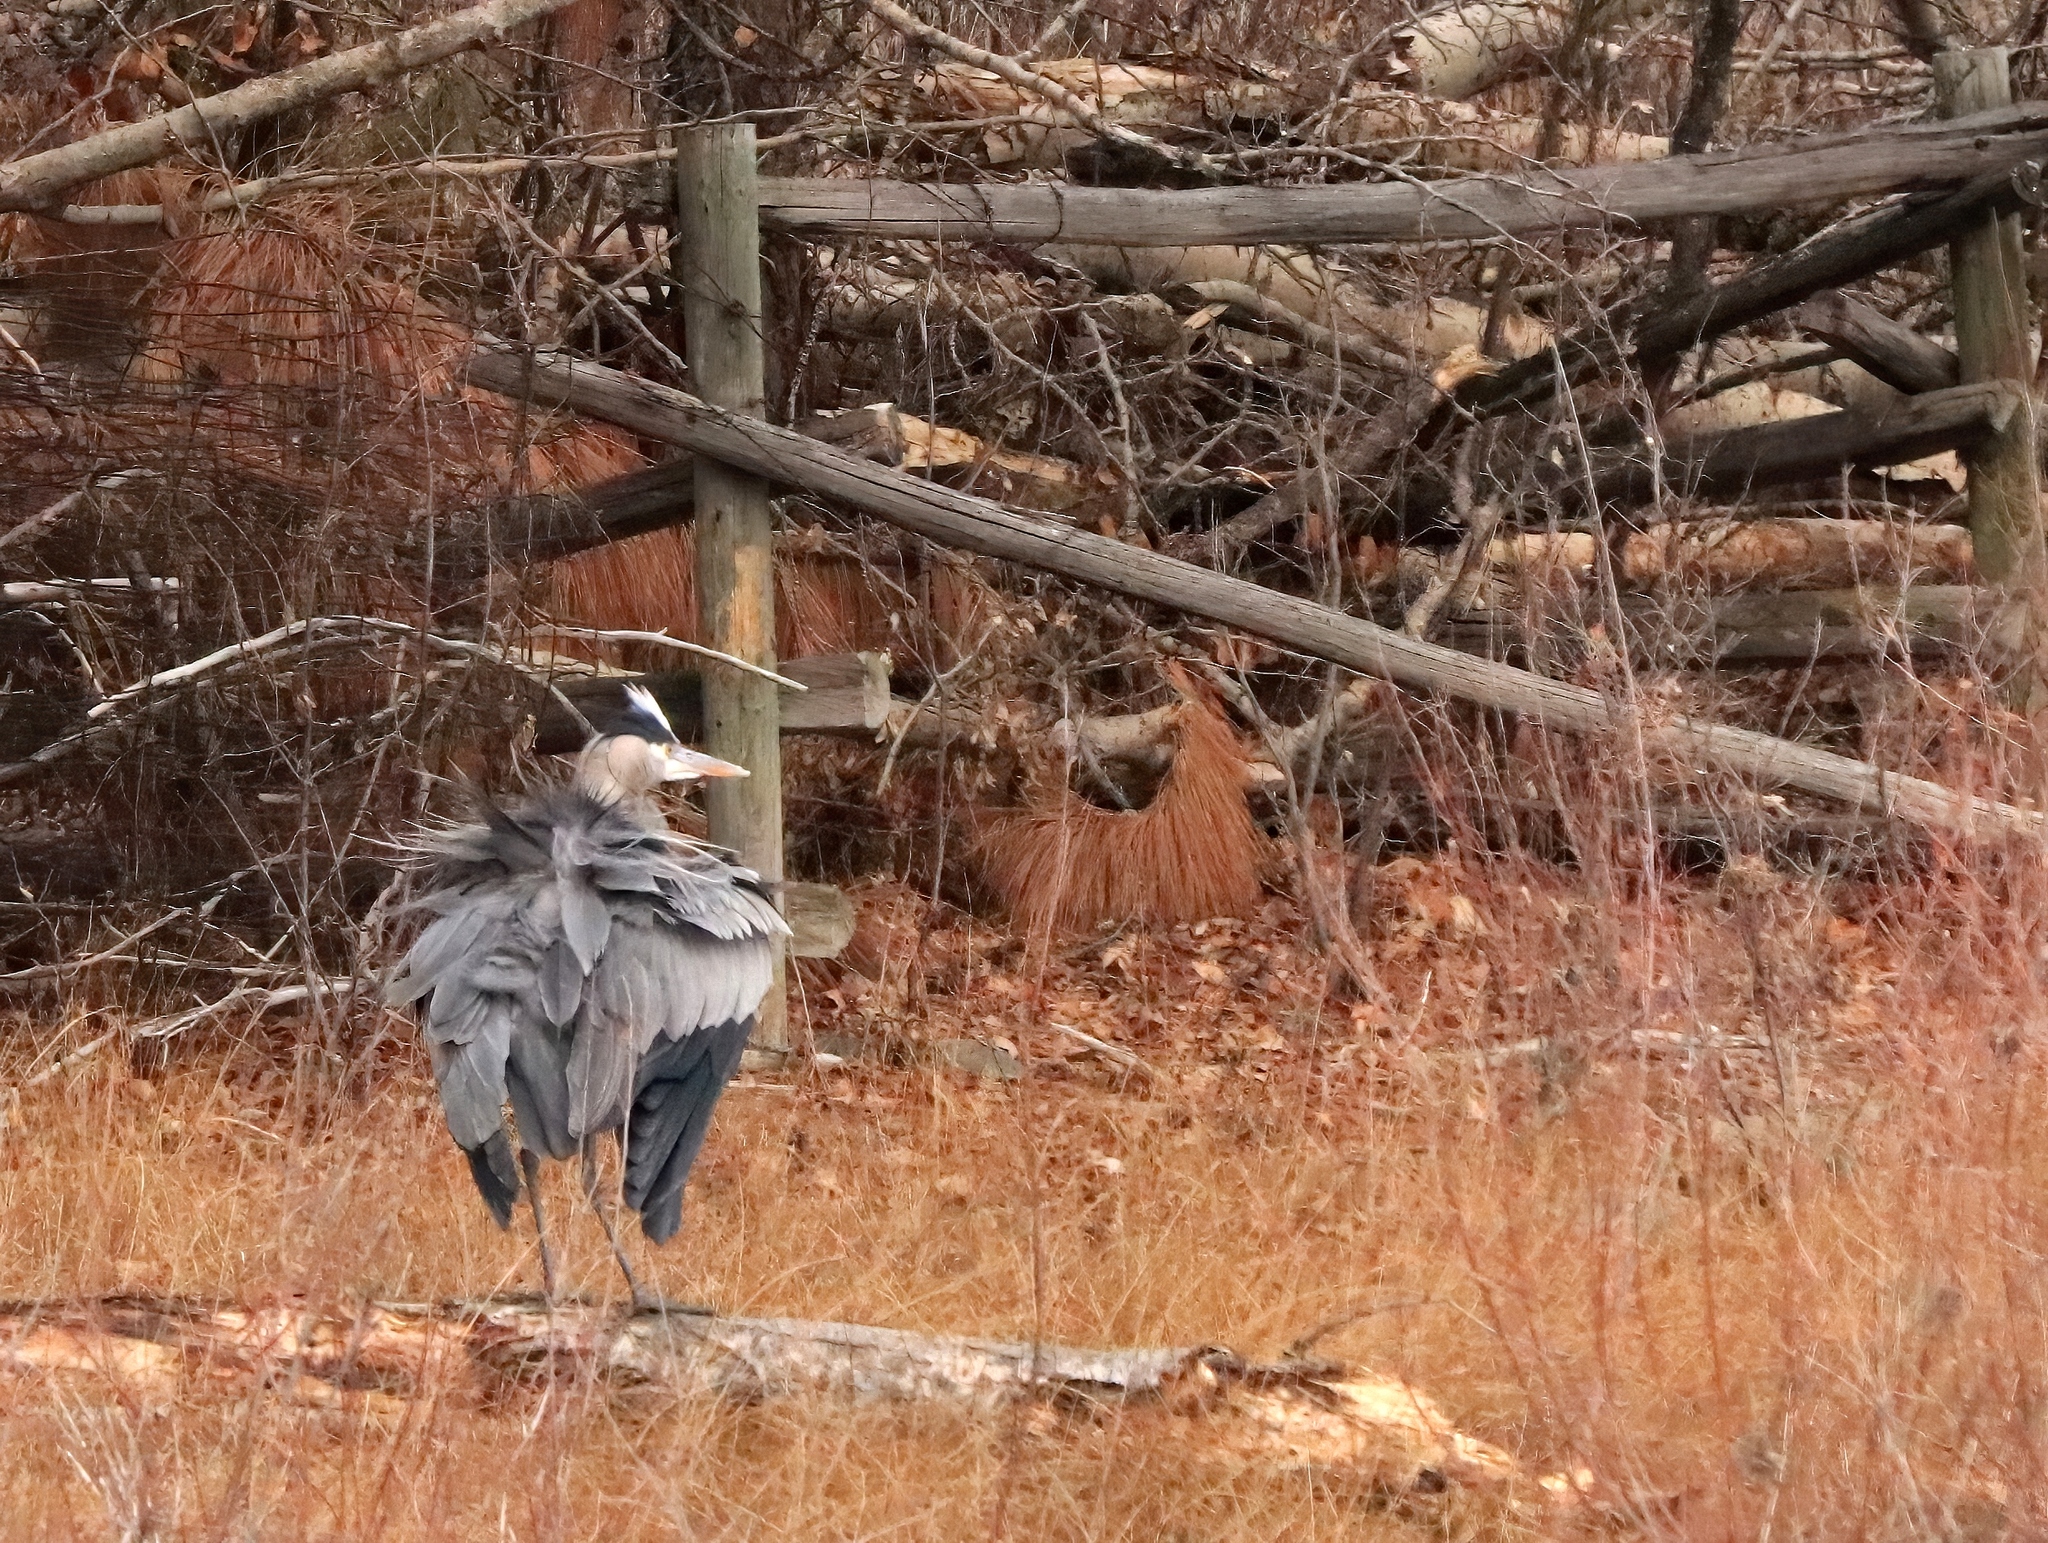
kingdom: Animalia
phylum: Chordata
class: Aves
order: Pelecaniformes
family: Ardeidae
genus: Ardea
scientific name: Ardea herodias
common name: Great blue heron
